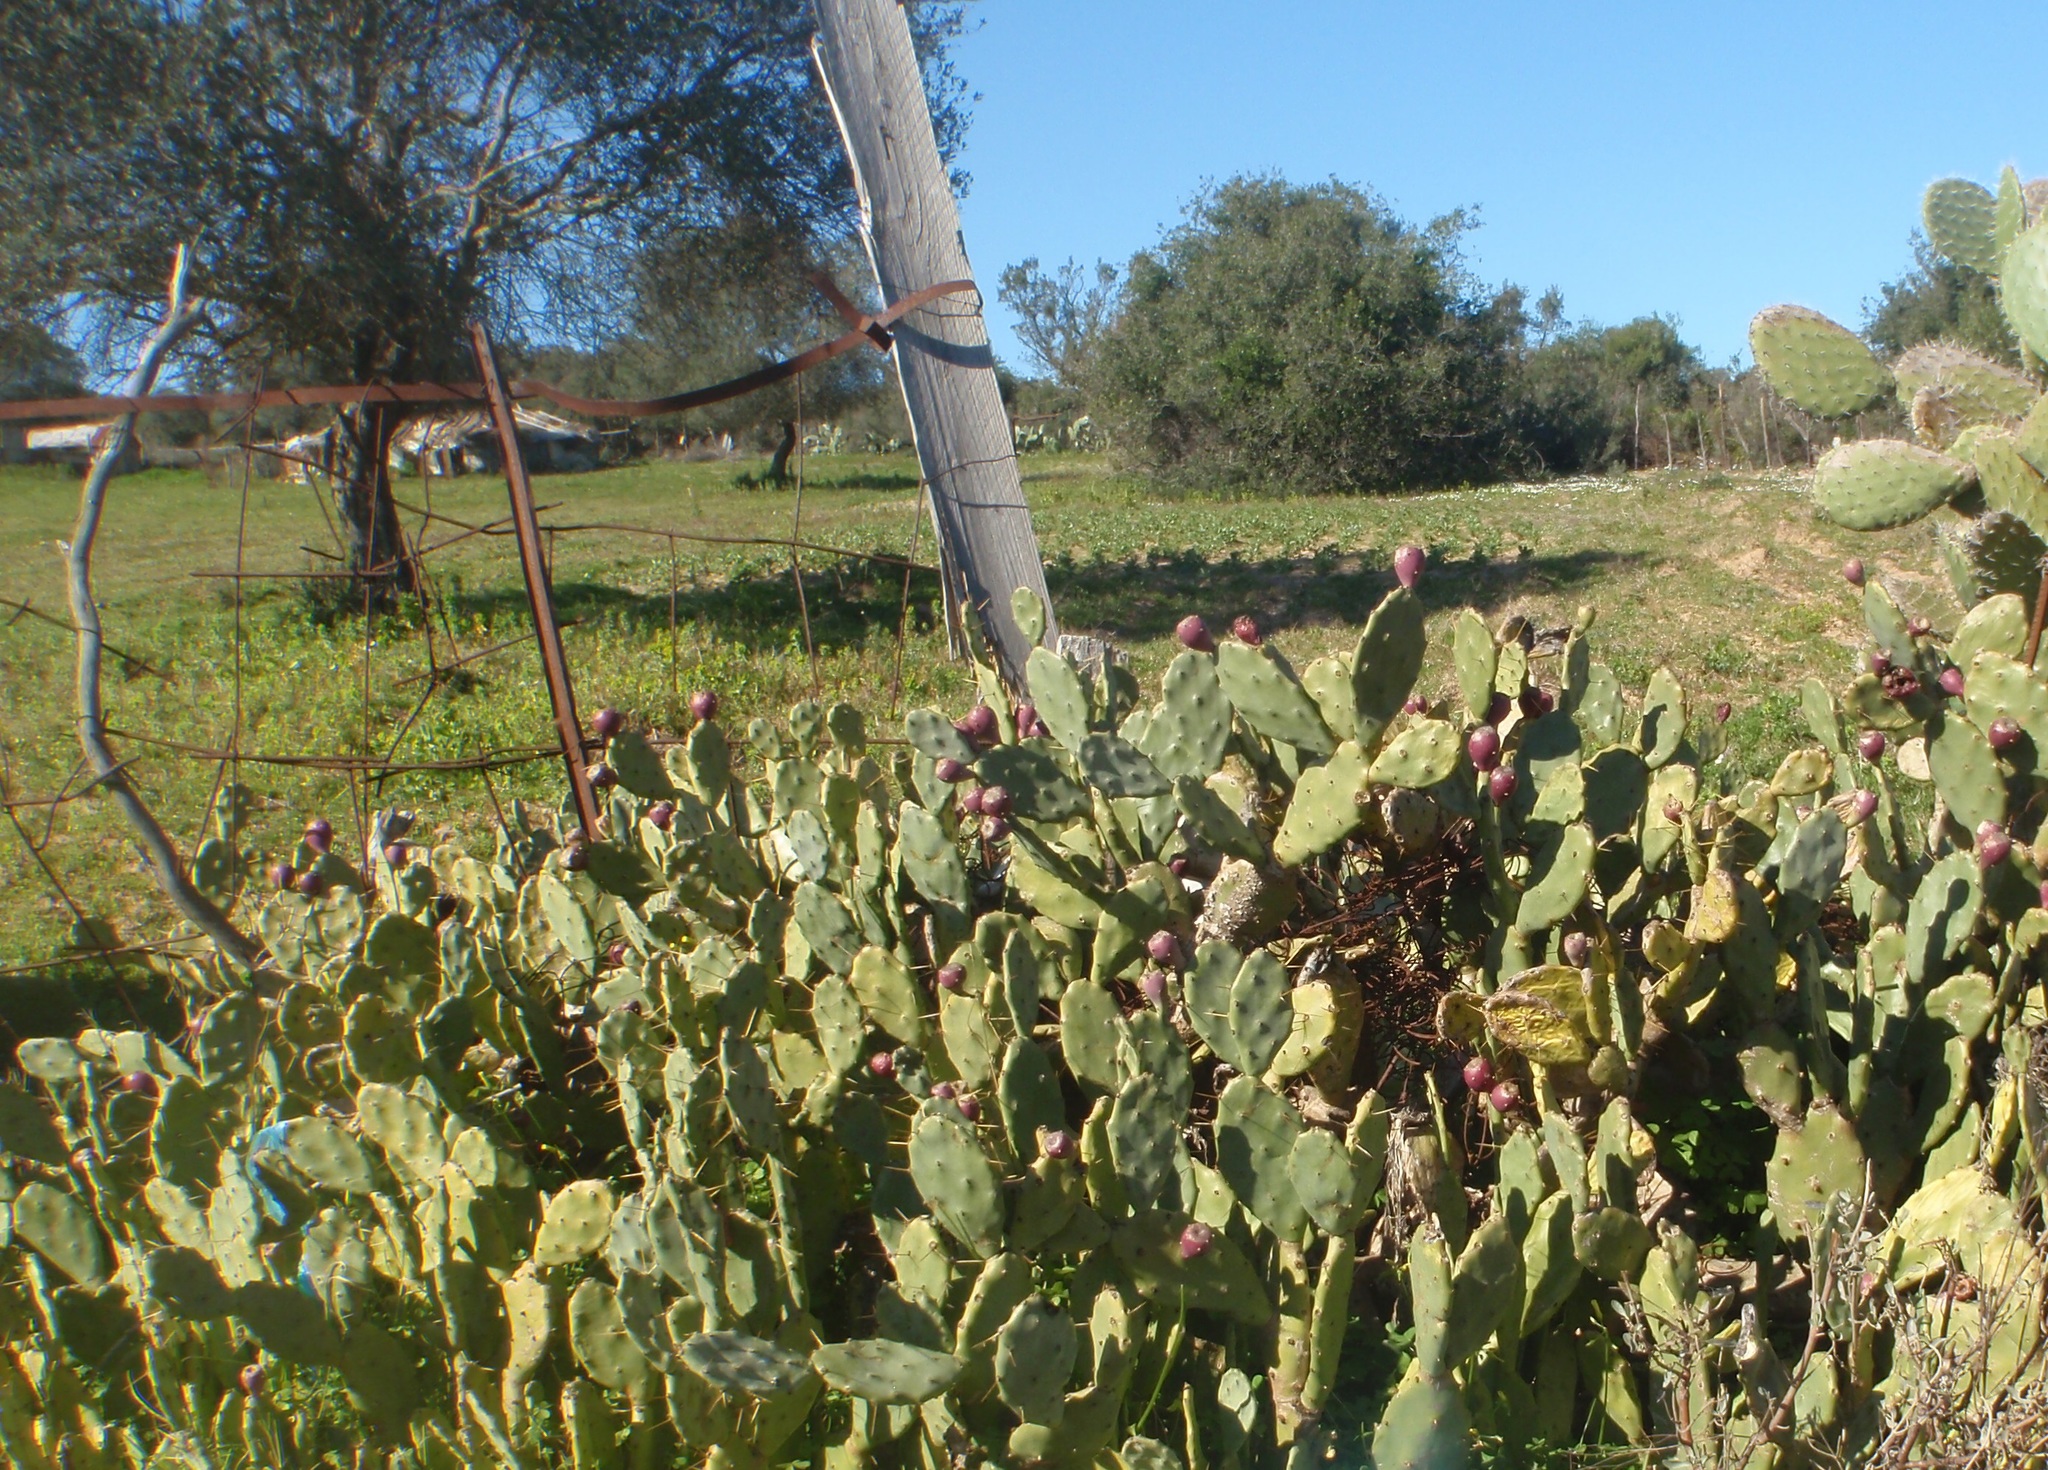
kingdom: Plantae
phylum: Tracheophyta
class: Magnoliopsida
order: Caryophyllales
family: Cactaceae
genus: Opuntia
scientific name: Opuntia stricta
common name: Erect pricklypear
